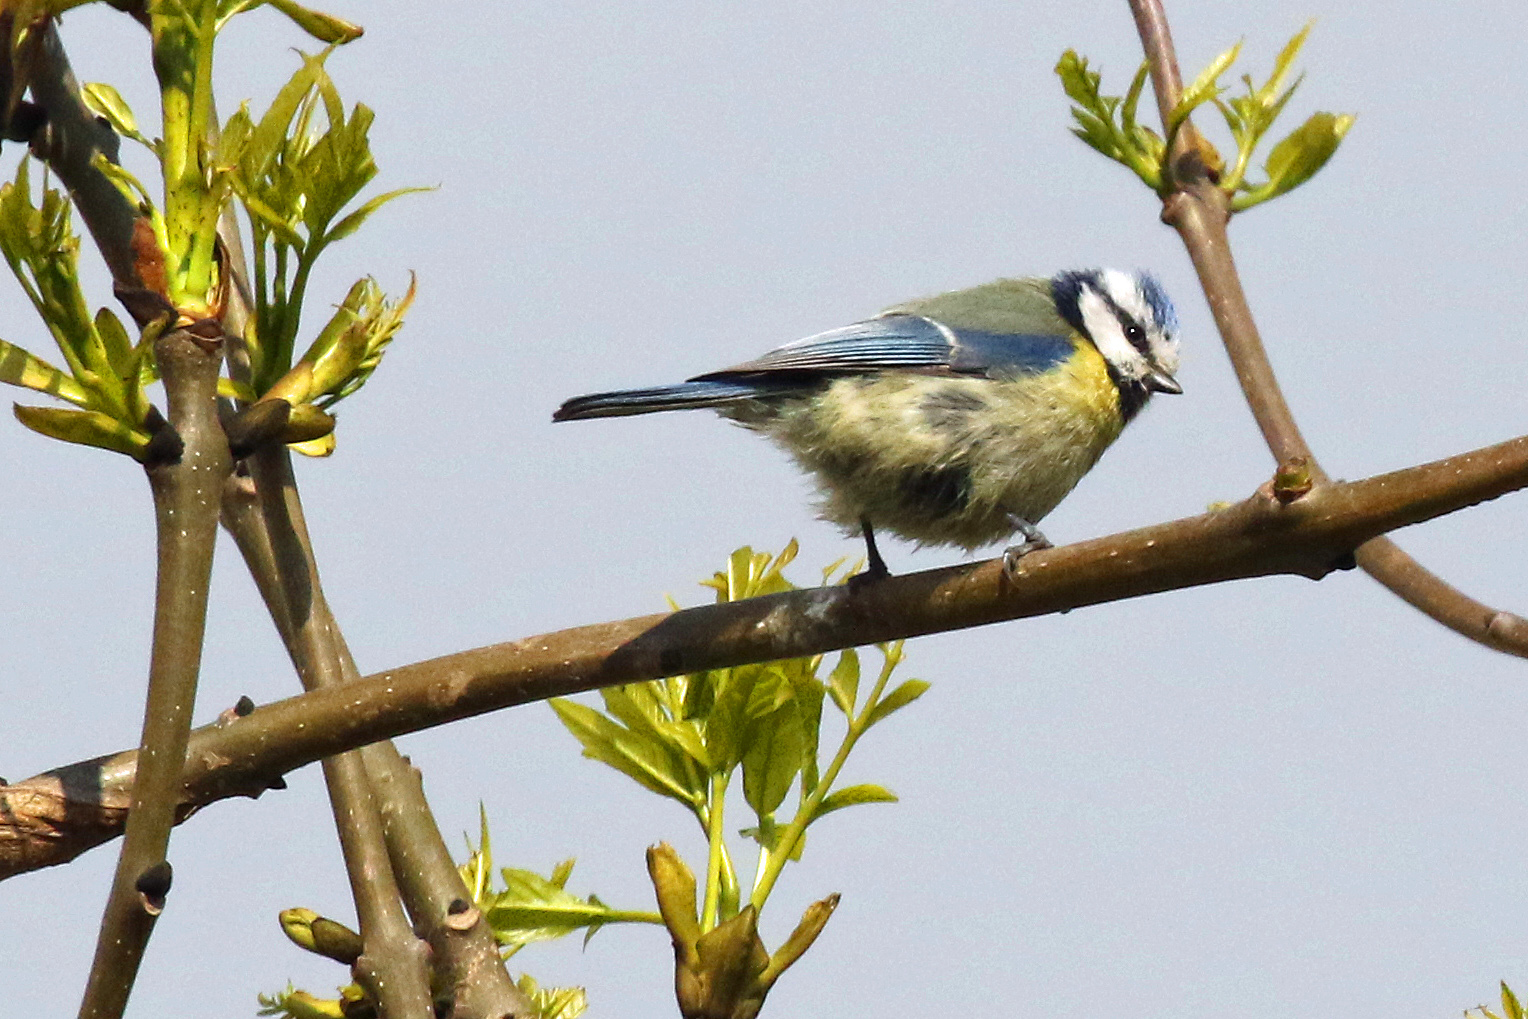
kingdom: Animalia
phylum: Chordata
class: Aves
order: Passeriformes
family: Paridae
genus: Cyanistes
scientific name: Cyanistes caeruleus
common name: Eurasian blue tit
